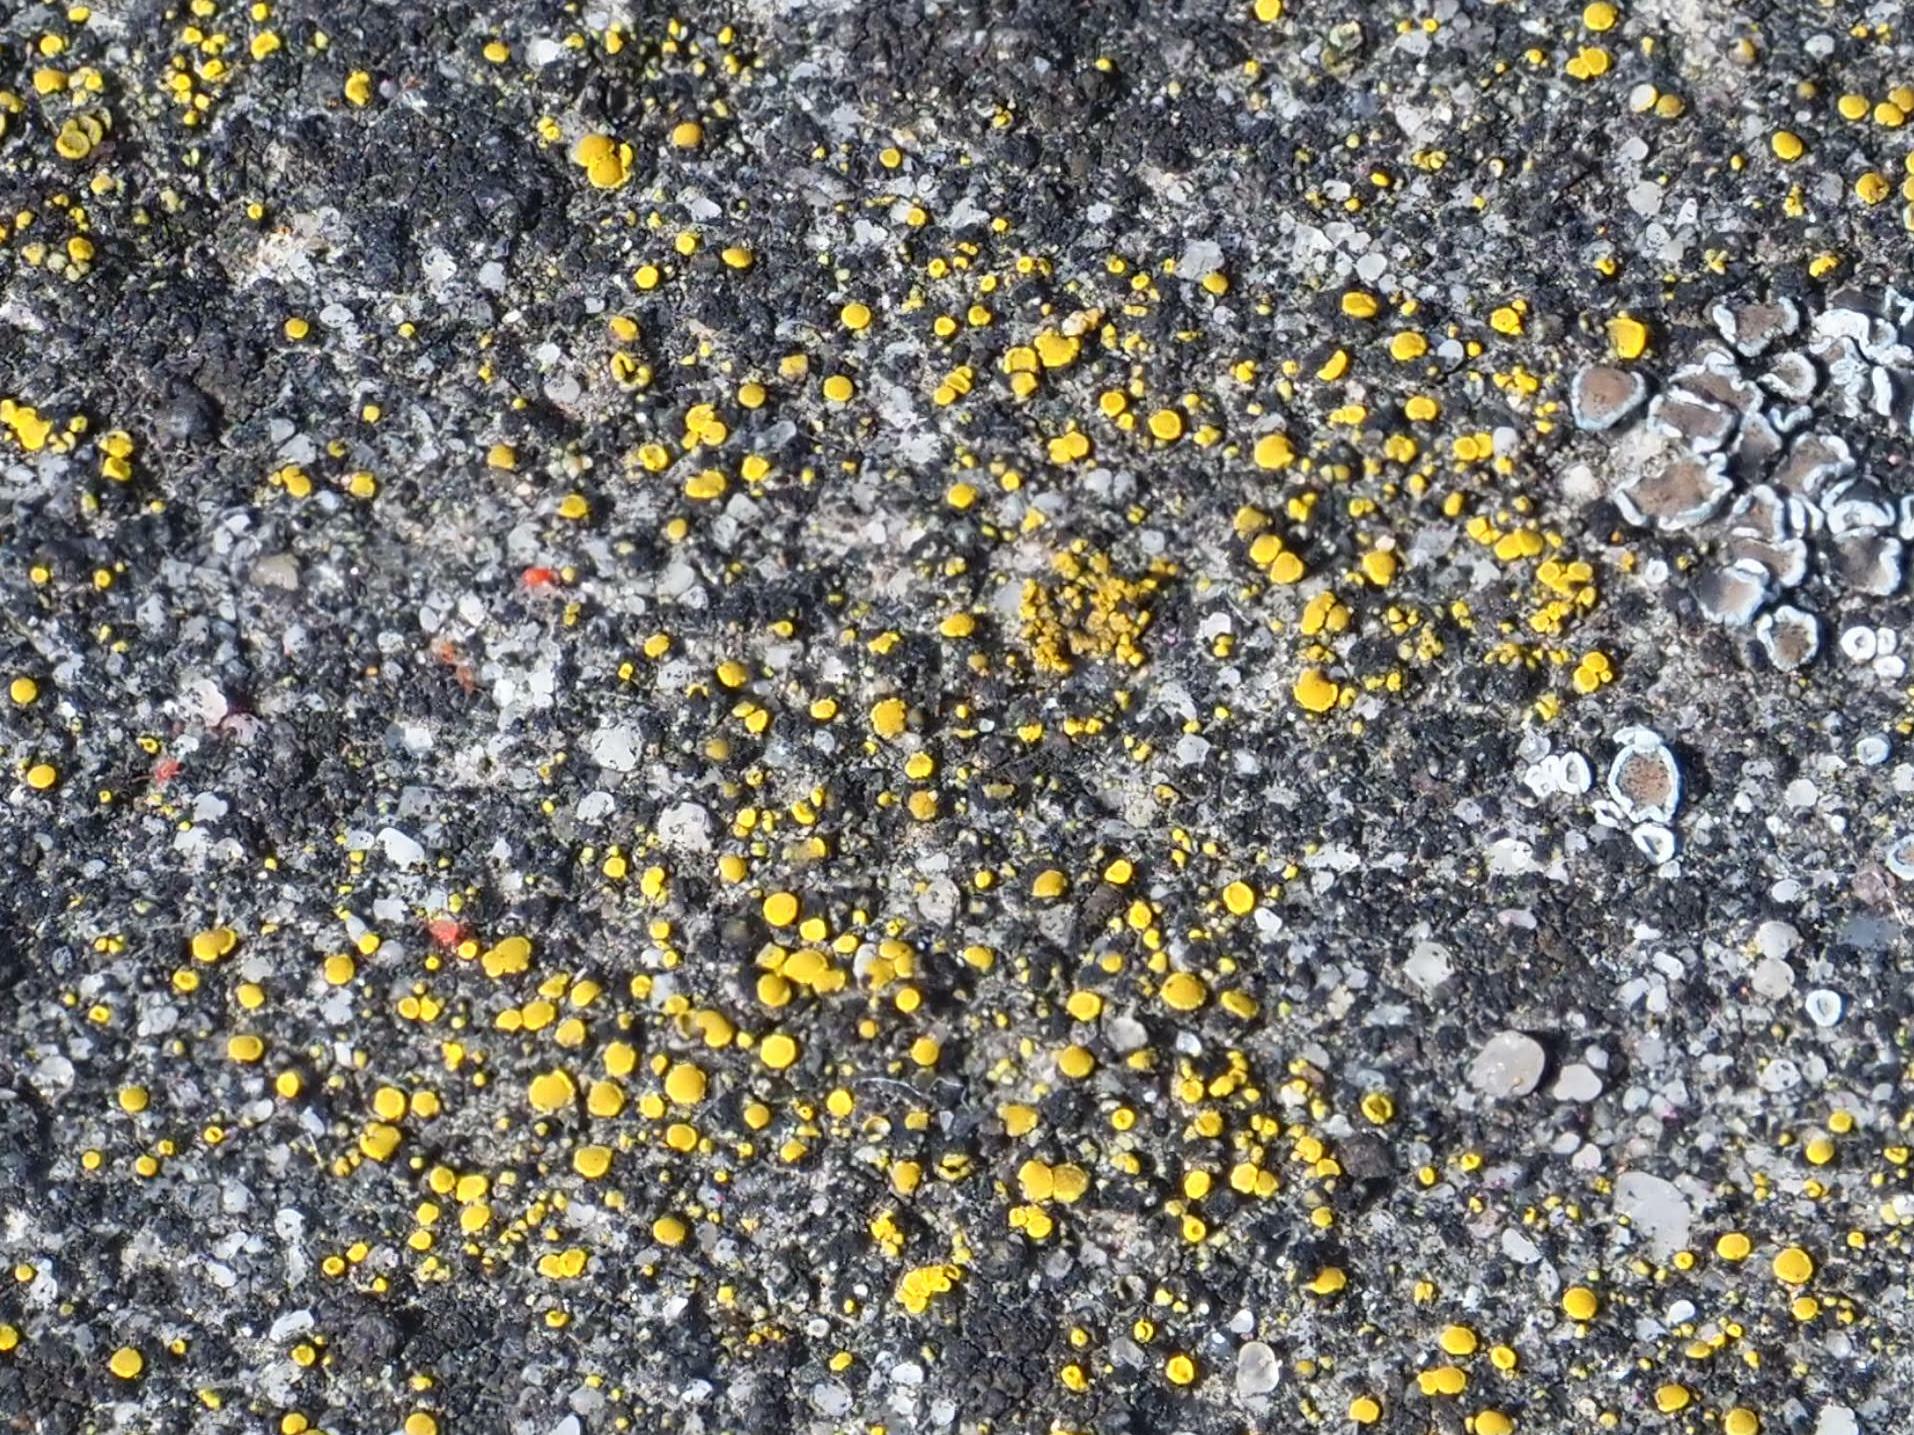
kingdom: Fungi
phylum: Ascomycota
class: Candelariomycetes
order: Candelariales
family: Candelariaceae
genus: Candelariella
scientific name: Candelariella aurella
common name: Hidden goldspeck lichen
